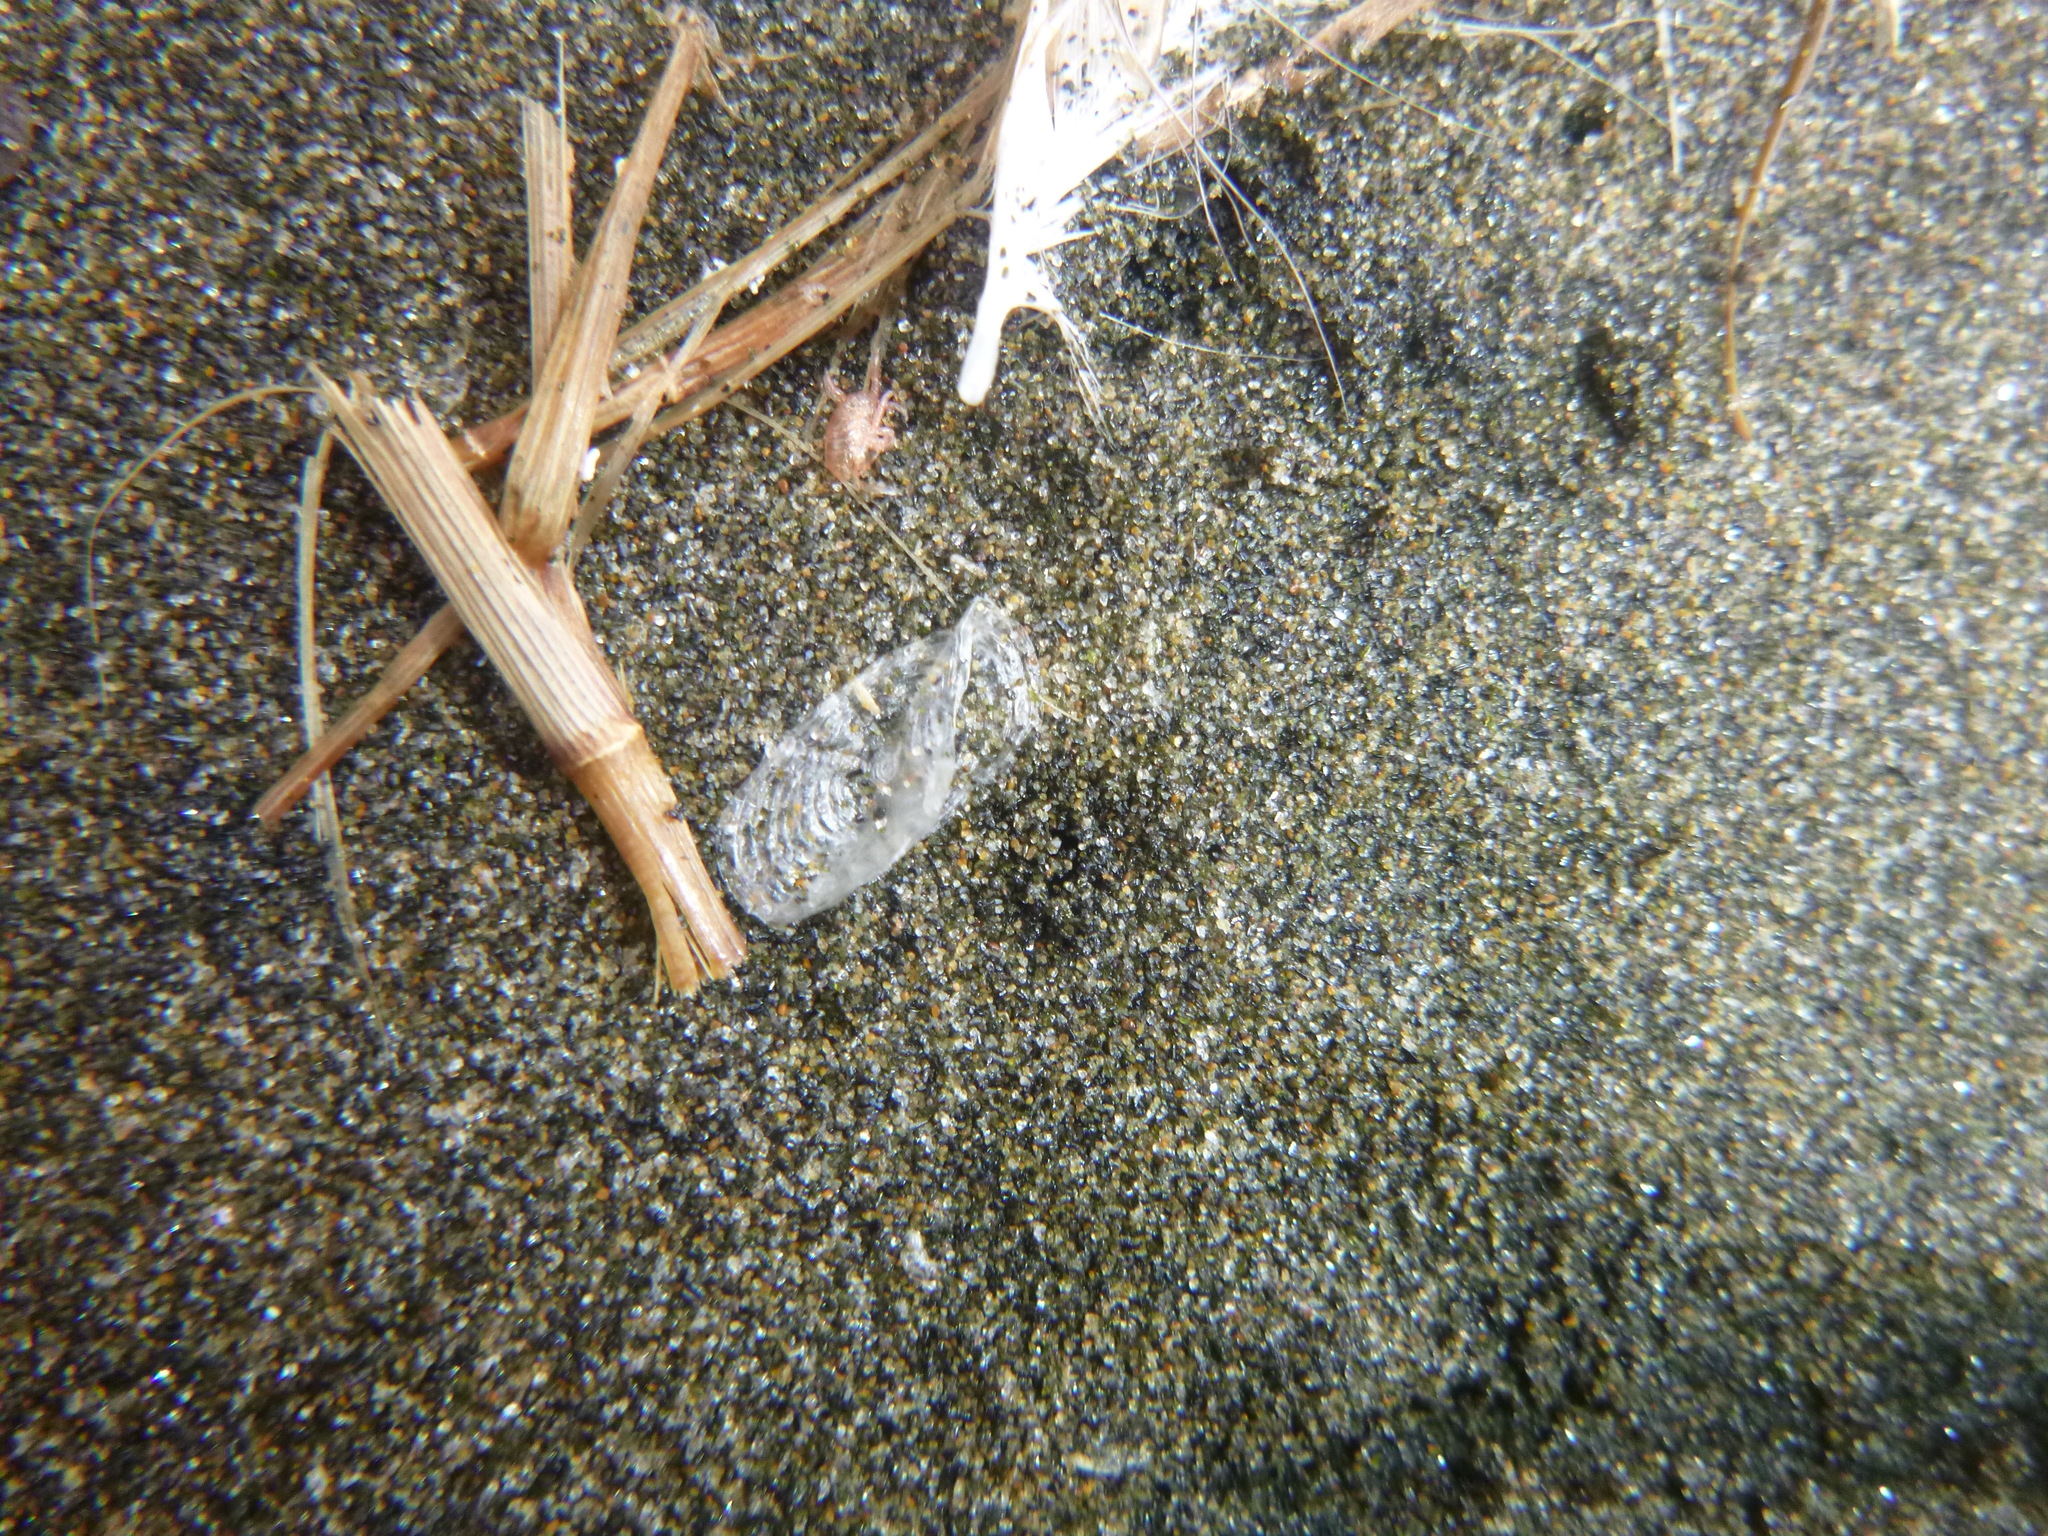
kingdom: Animalia
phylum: Cnidaria
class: Hydrozoa
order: Anthoathecata
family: Porpitidae
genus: Velella
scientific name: Velella velella
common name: By-the-wind-sailor
